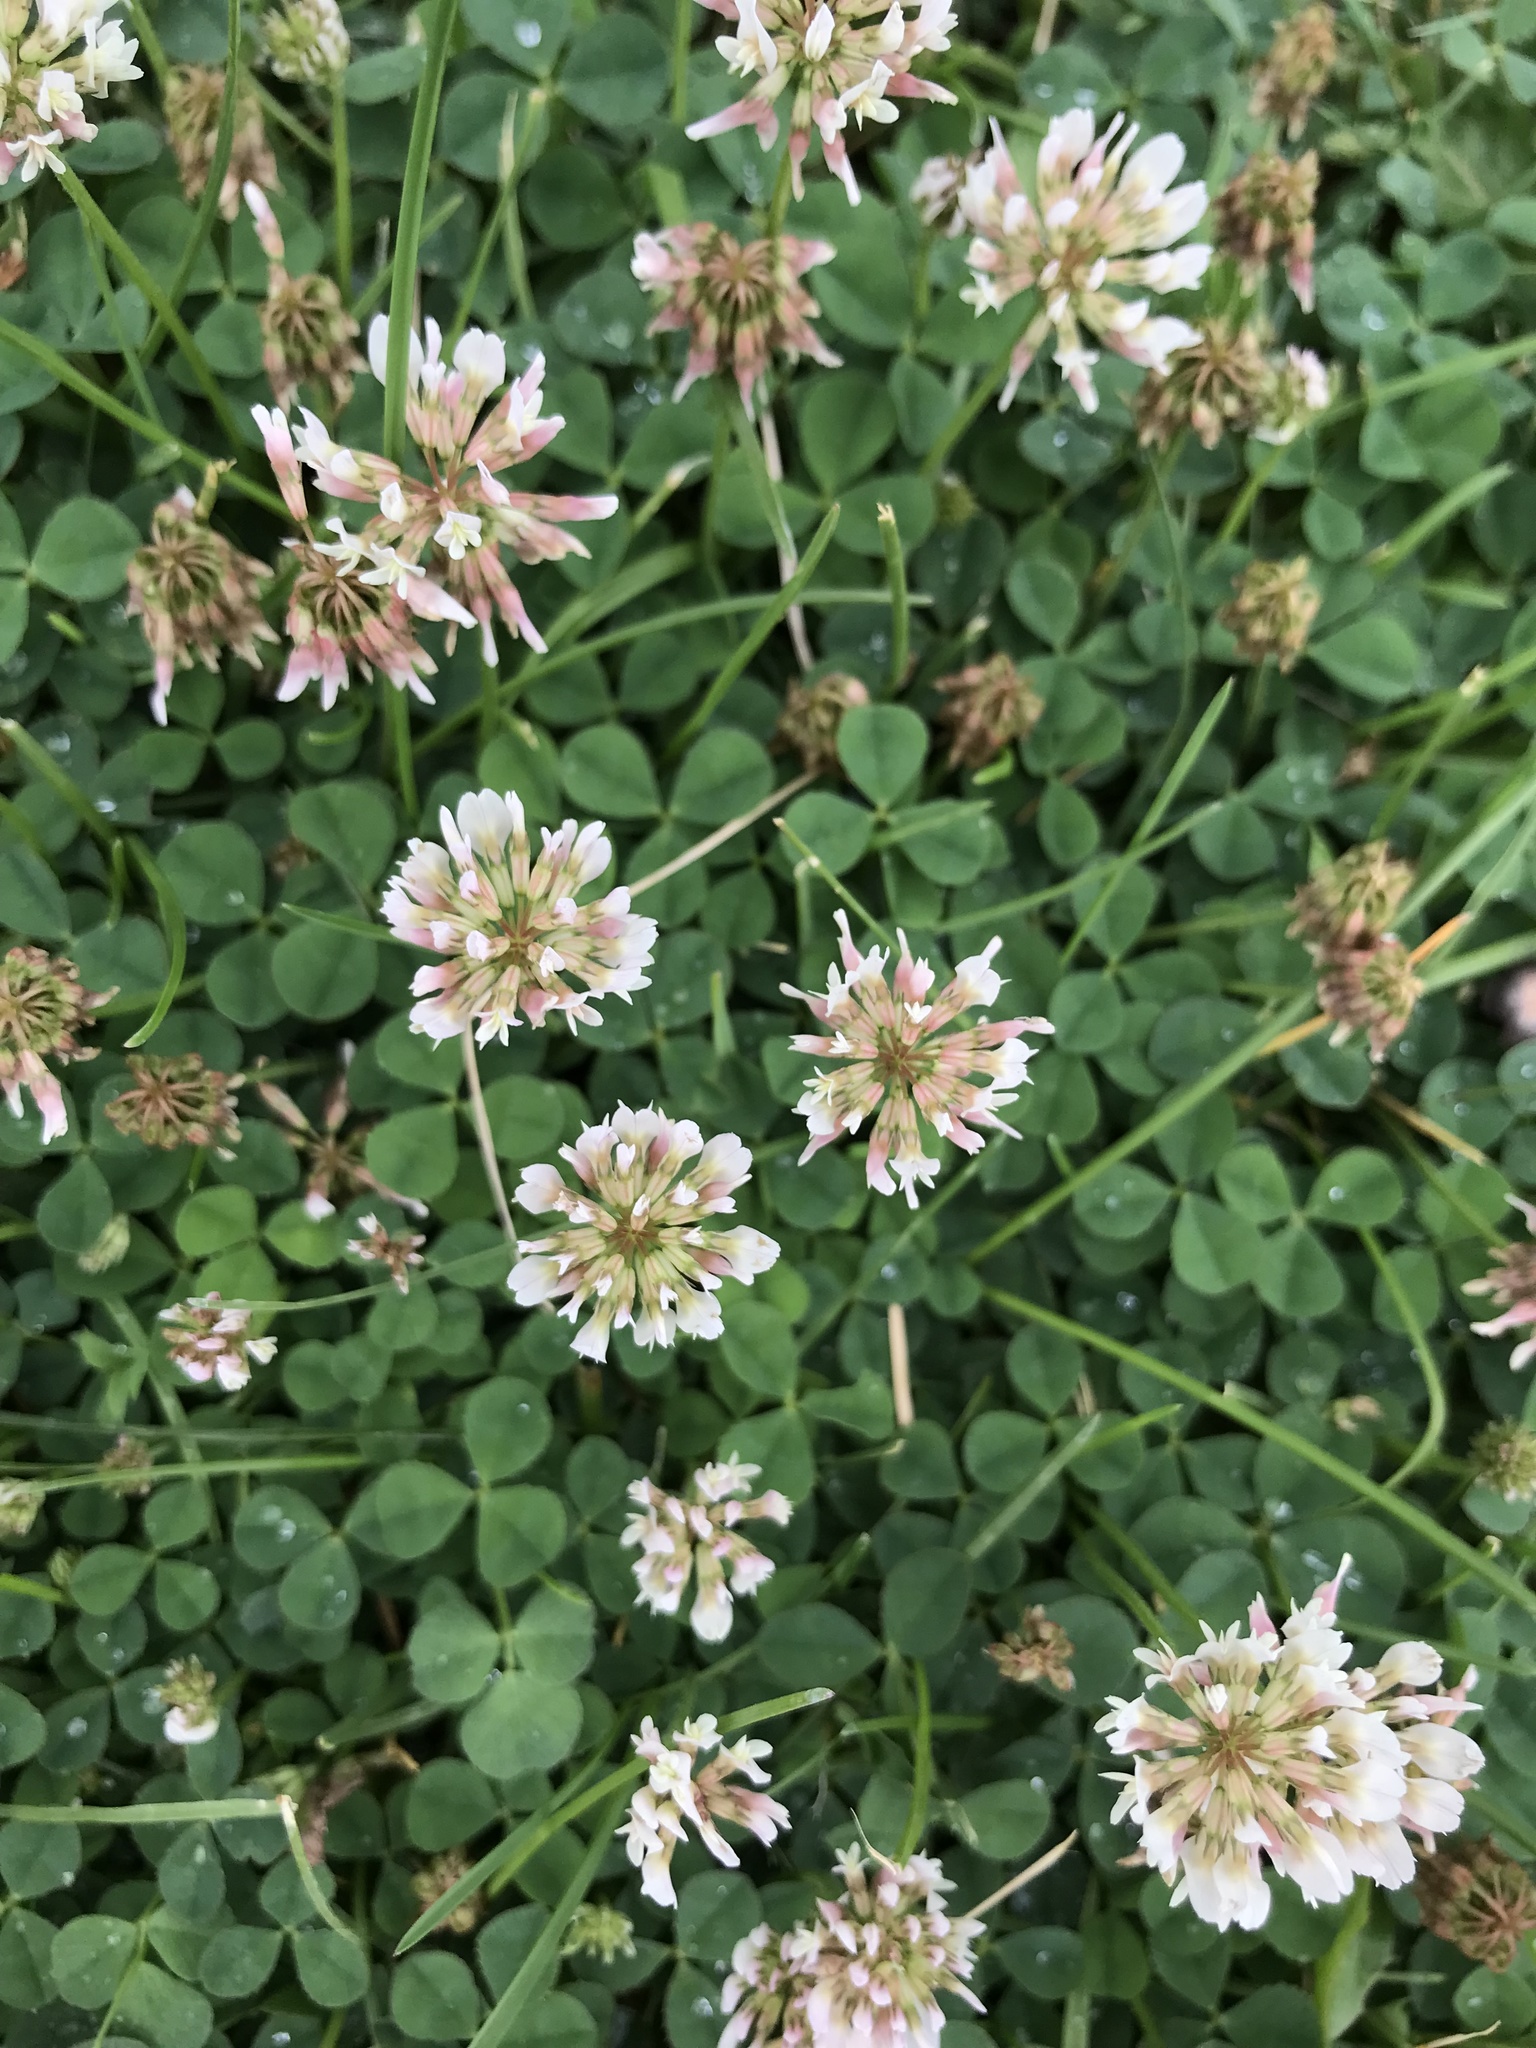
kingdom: Plantae
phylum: Tracheophyta
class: Magnoliopsida
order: Fabales
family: Fabaceae
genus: Trifolium
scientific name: Trifolium repens
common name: White clover
